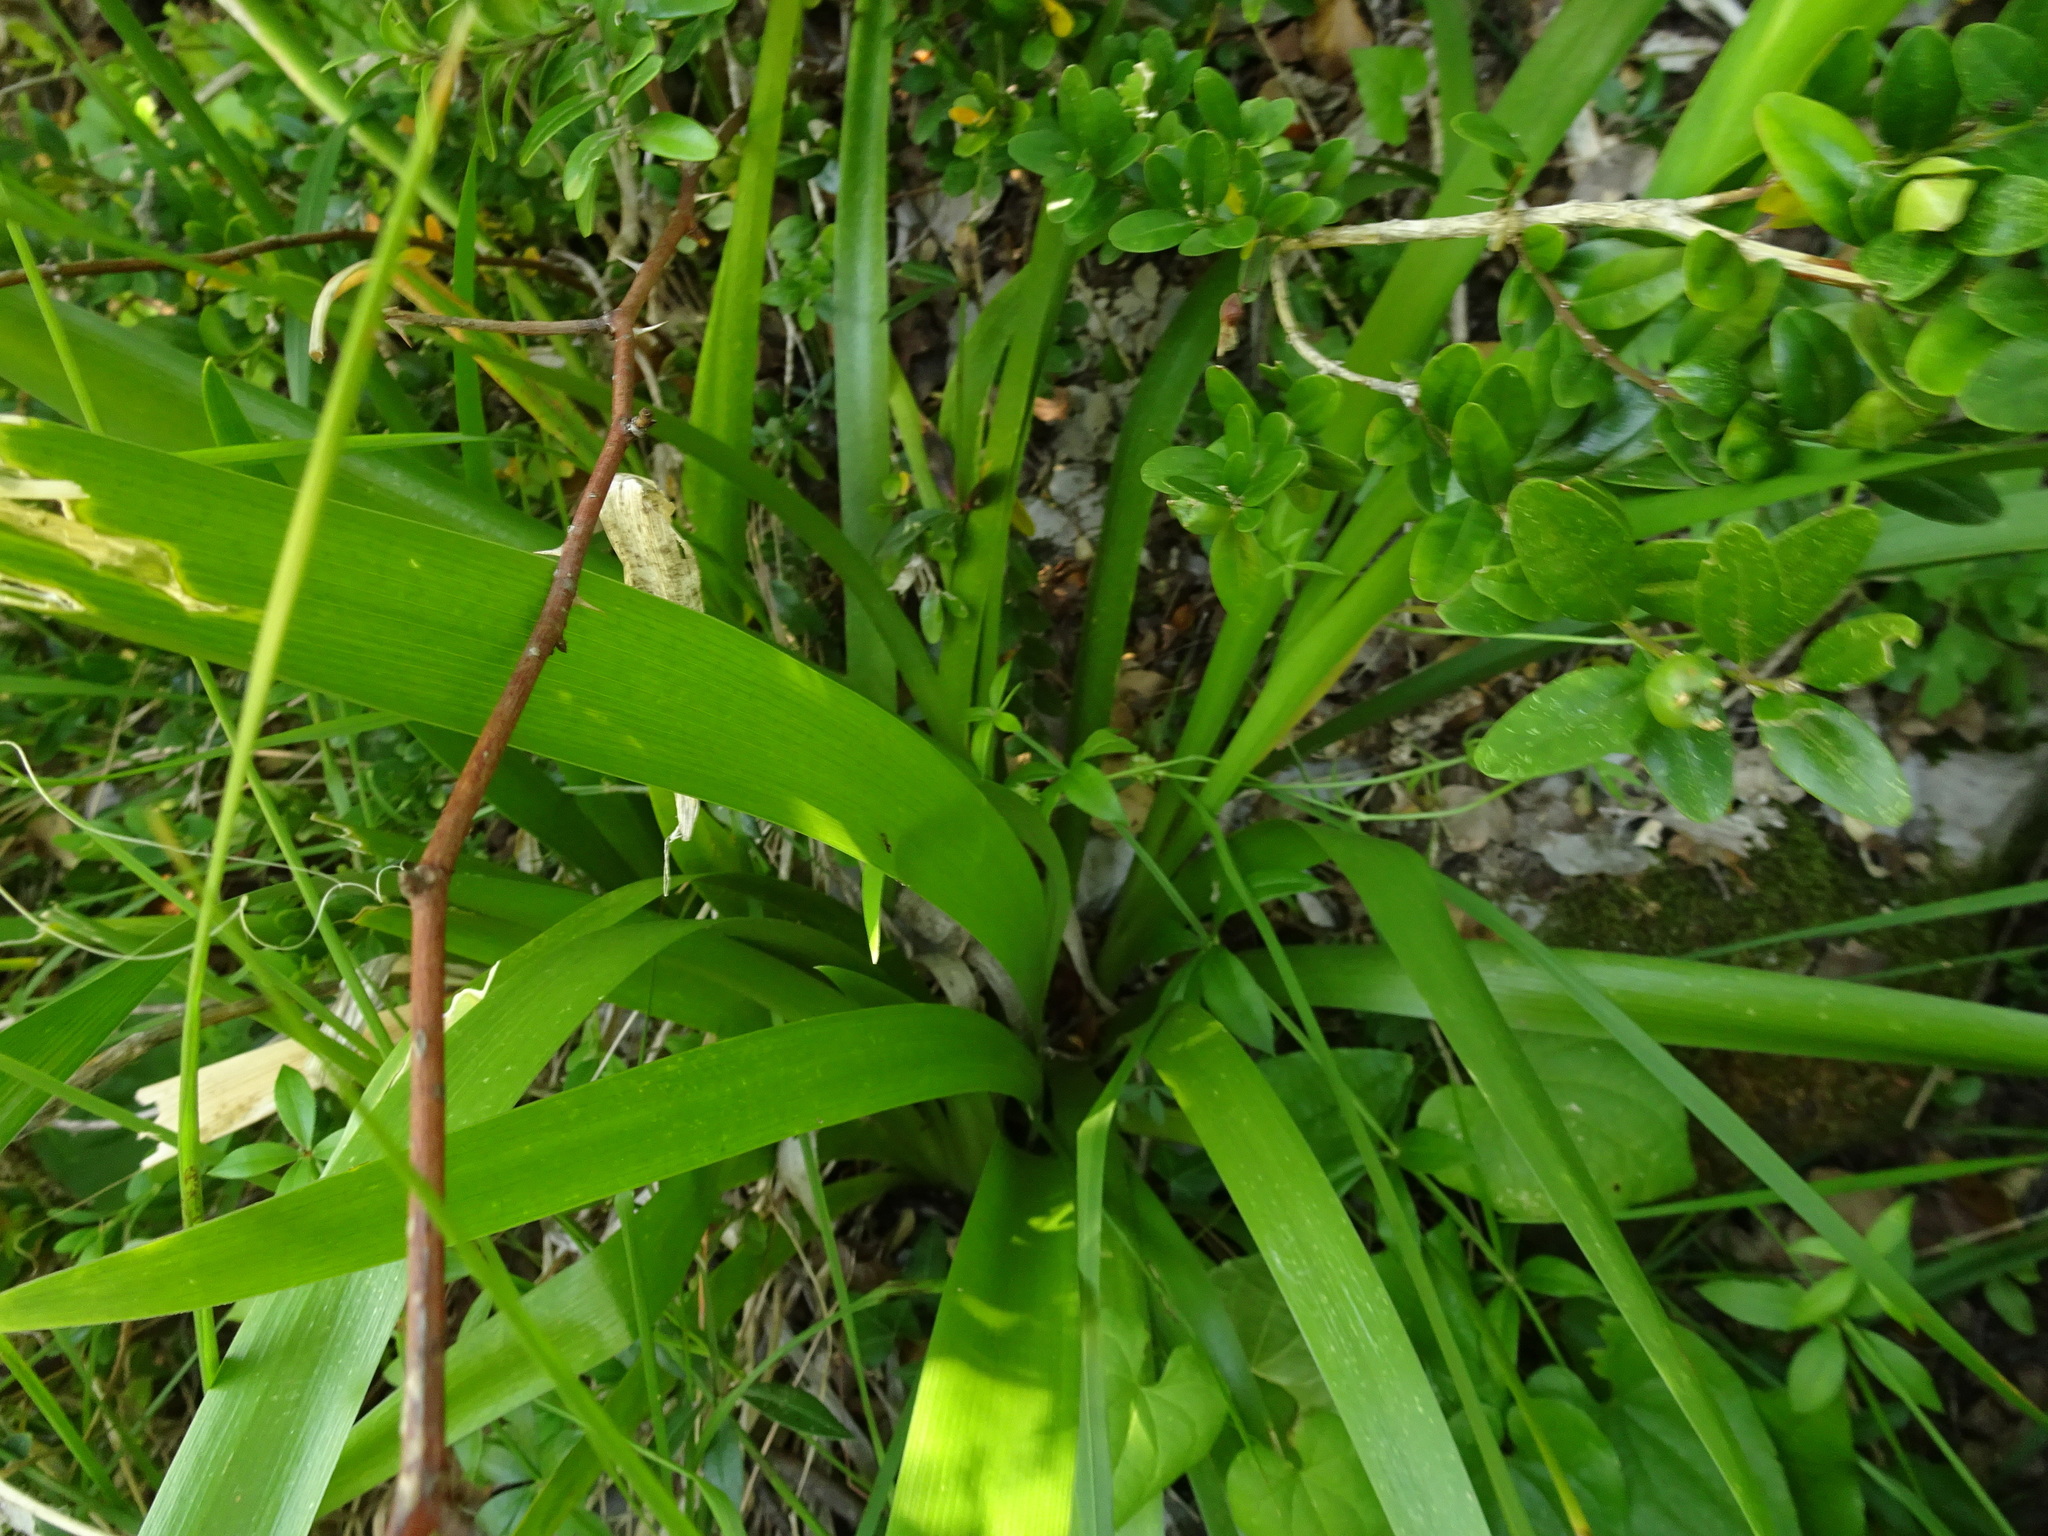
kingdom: Plantae
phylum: Tracheophyta
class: Liliopsida
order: Asparagales
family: Iridaceae
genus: Iris
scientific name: Iris foetidissima
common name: Stinking iris
